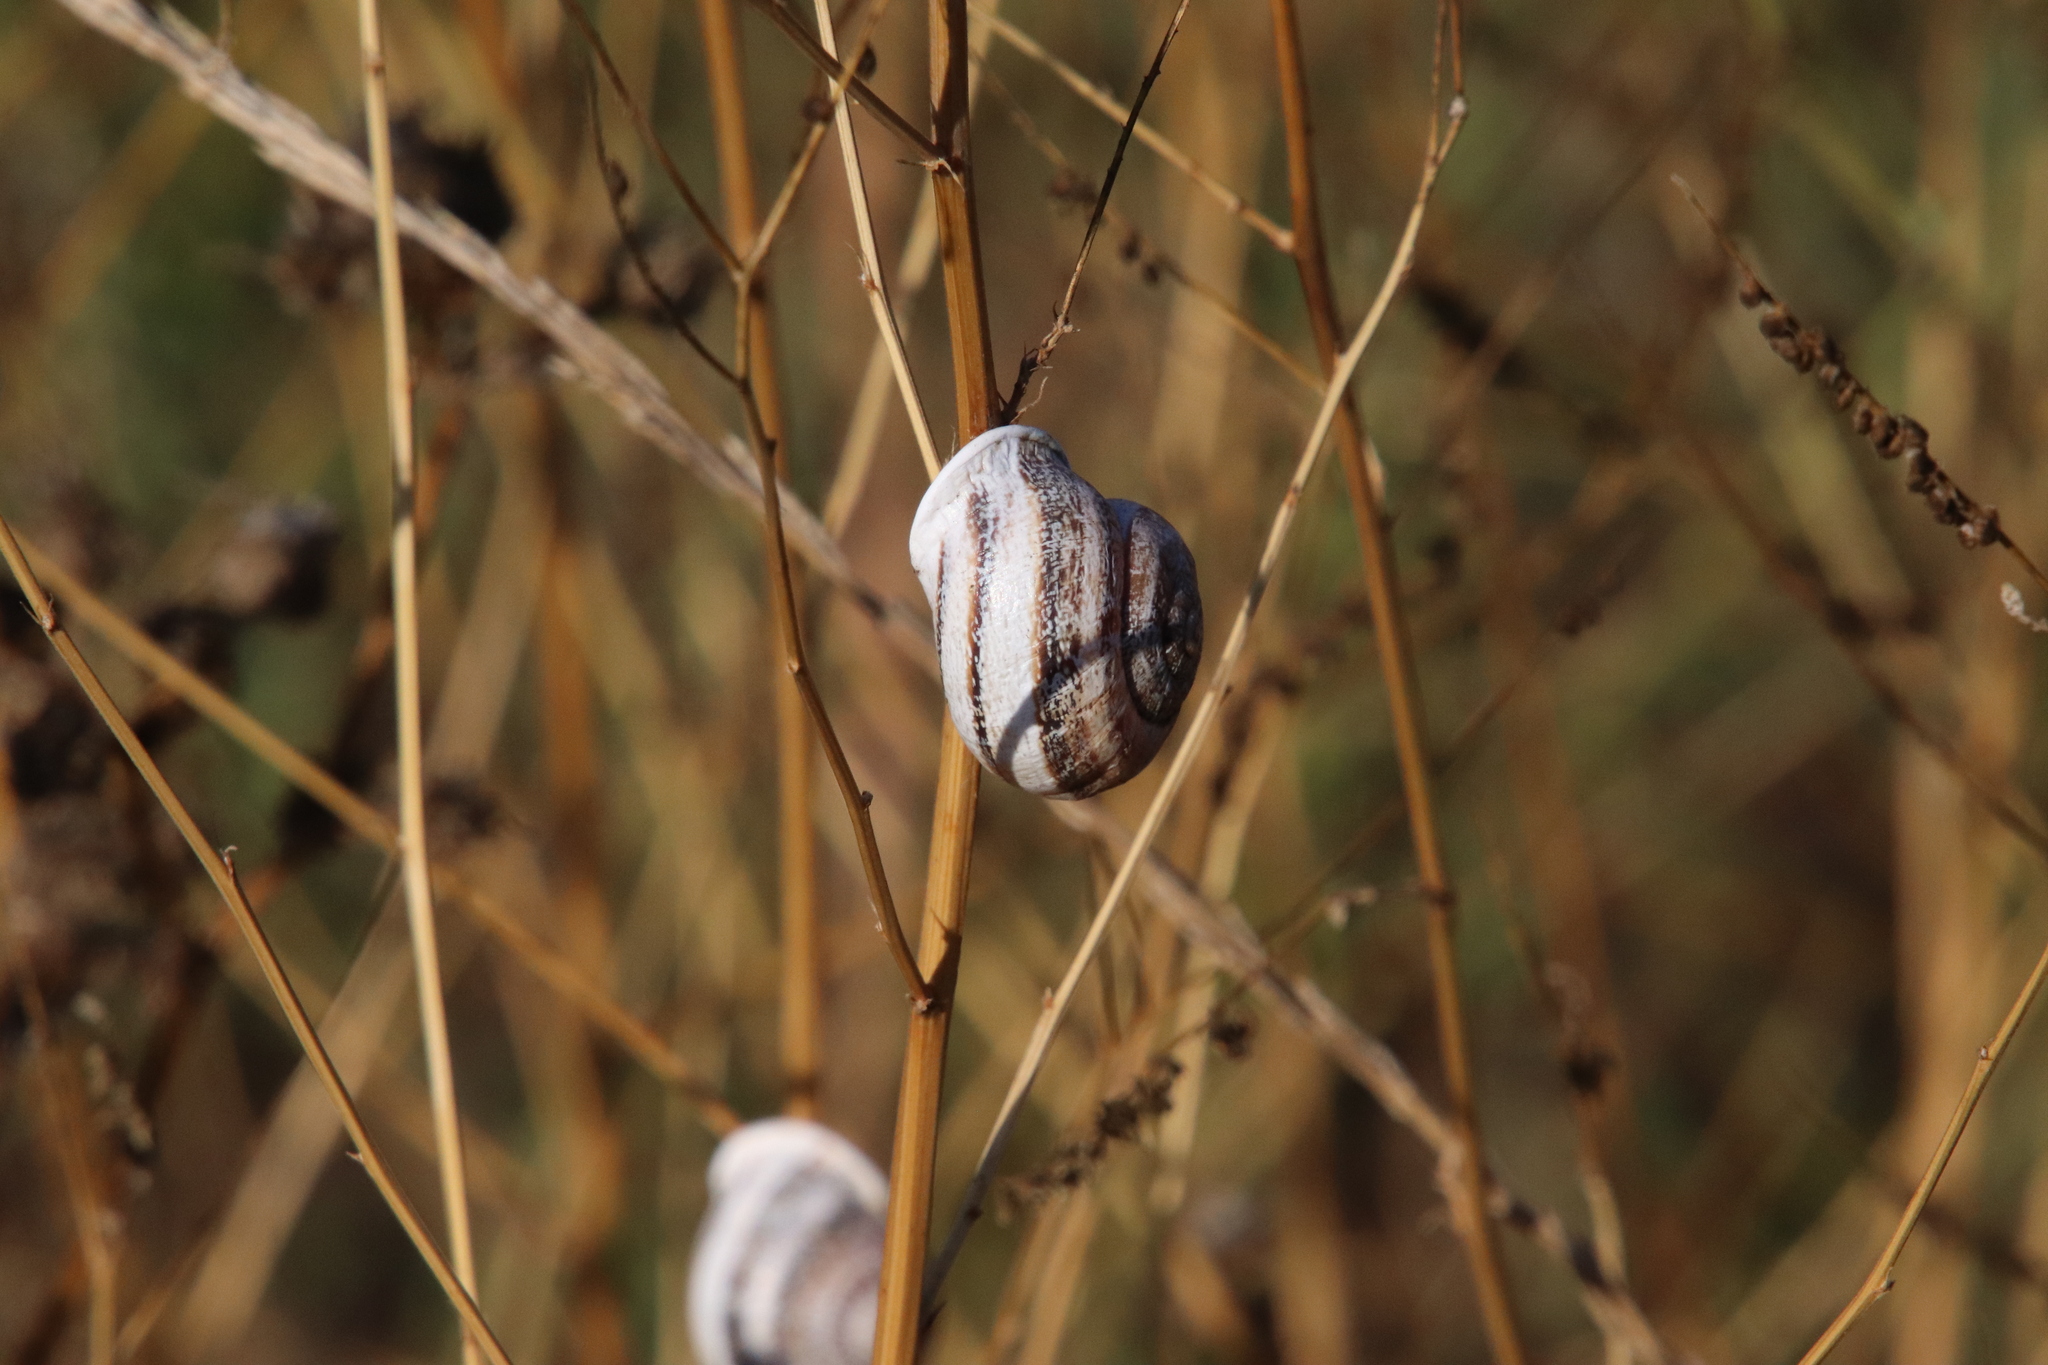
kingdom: Animalia
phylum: Mollusca
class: Gastropoda
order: Stylommatophora
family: Helicidae
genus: Otala
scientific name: Otala lactea
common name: Milk snail
